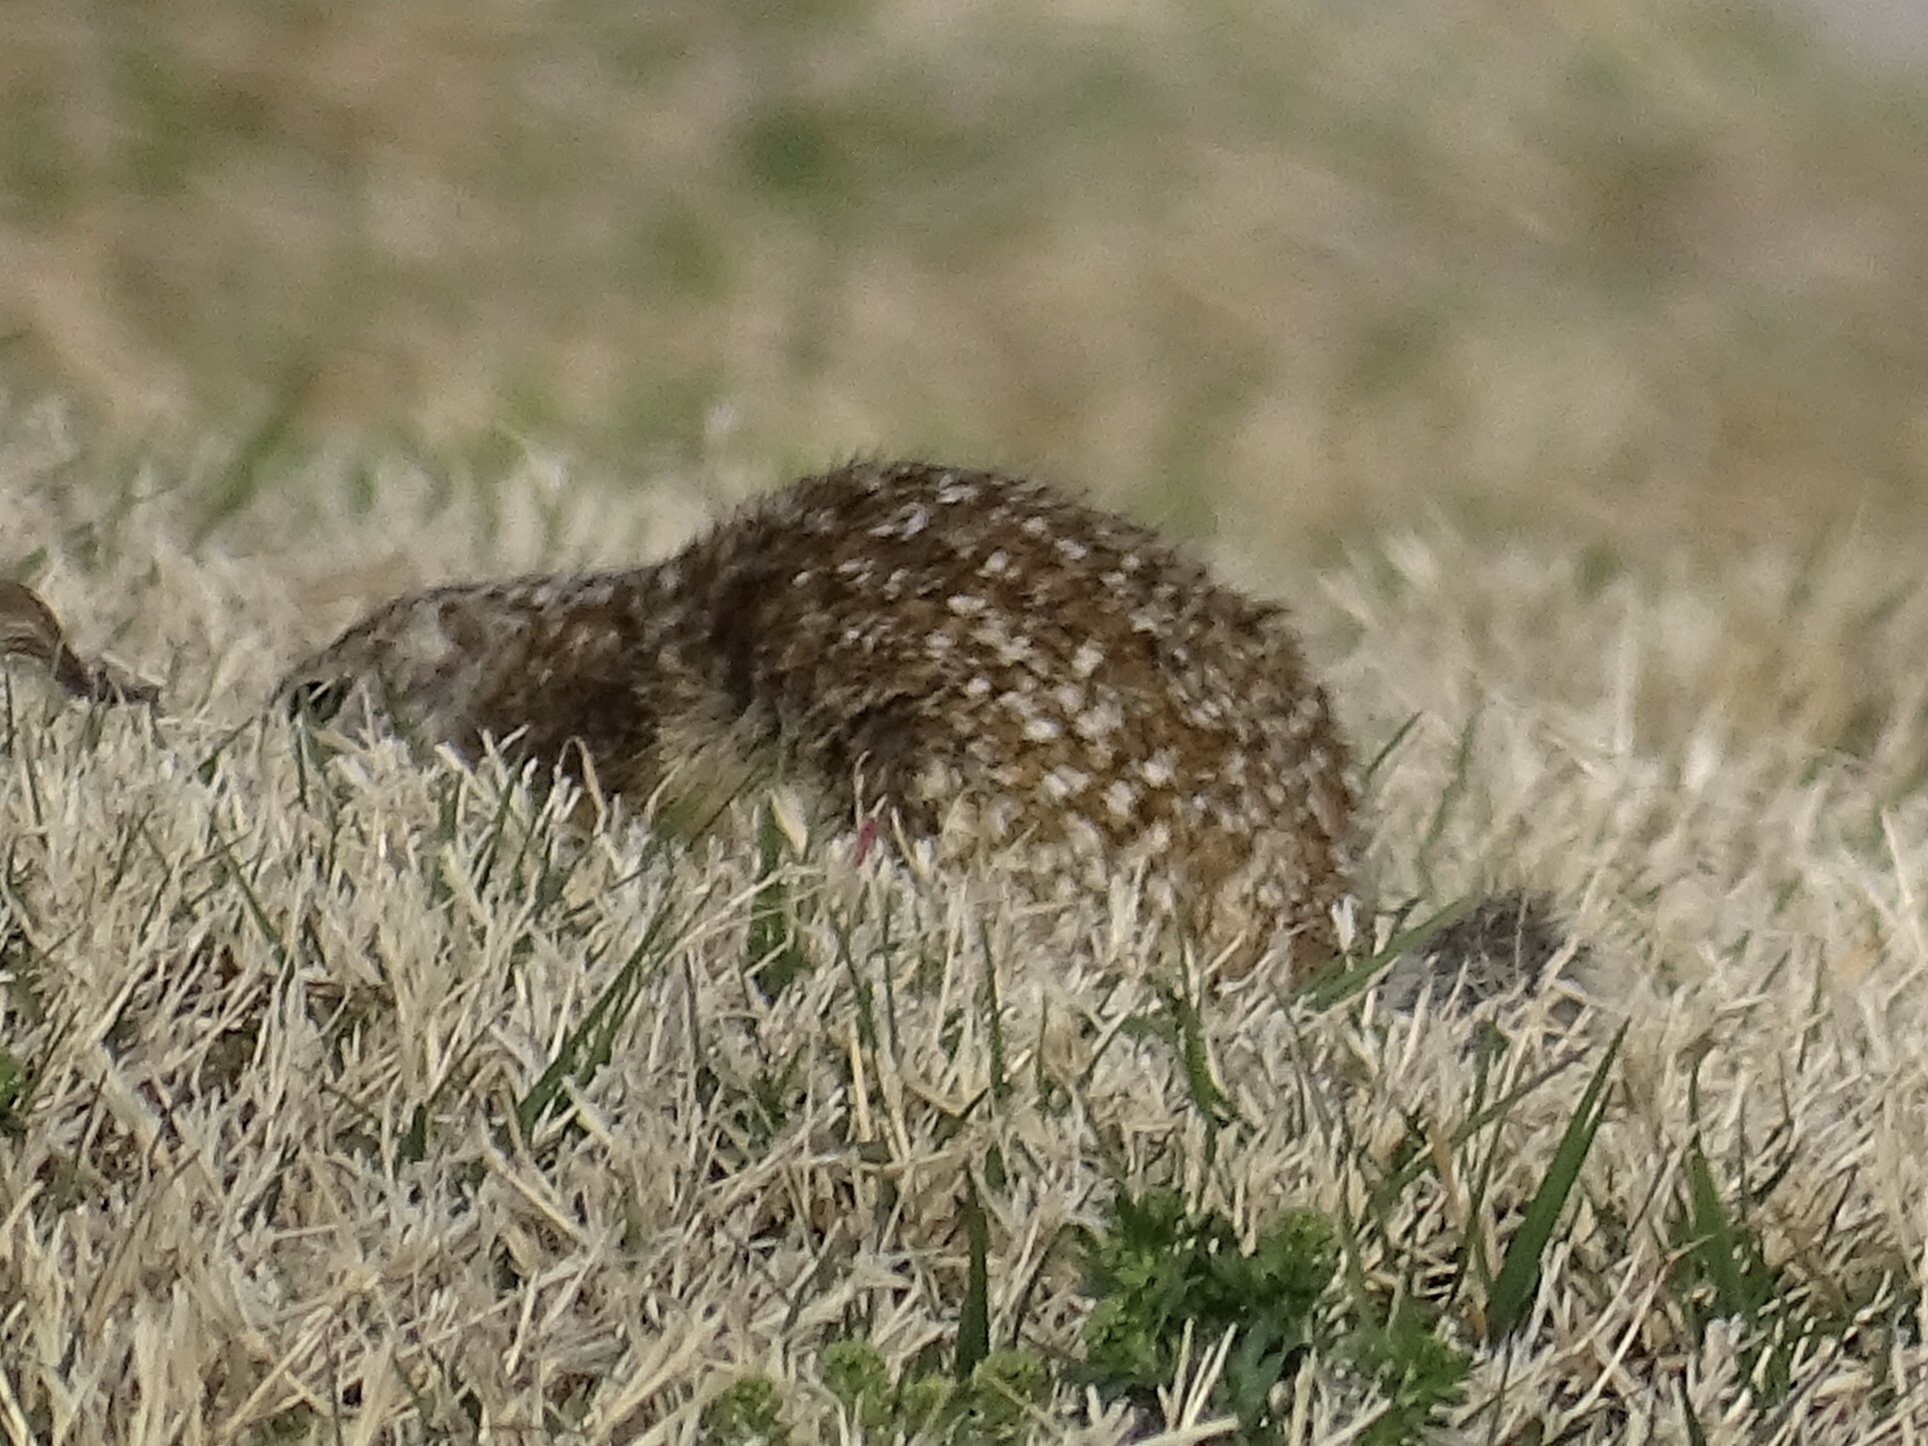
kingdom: Animalia
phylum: Chordata
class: Mammalia
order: Rodentia
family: Sciuridae
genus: Ictidomys
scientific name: Ictidomys parvidens
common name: Rio grande ground squirrel
